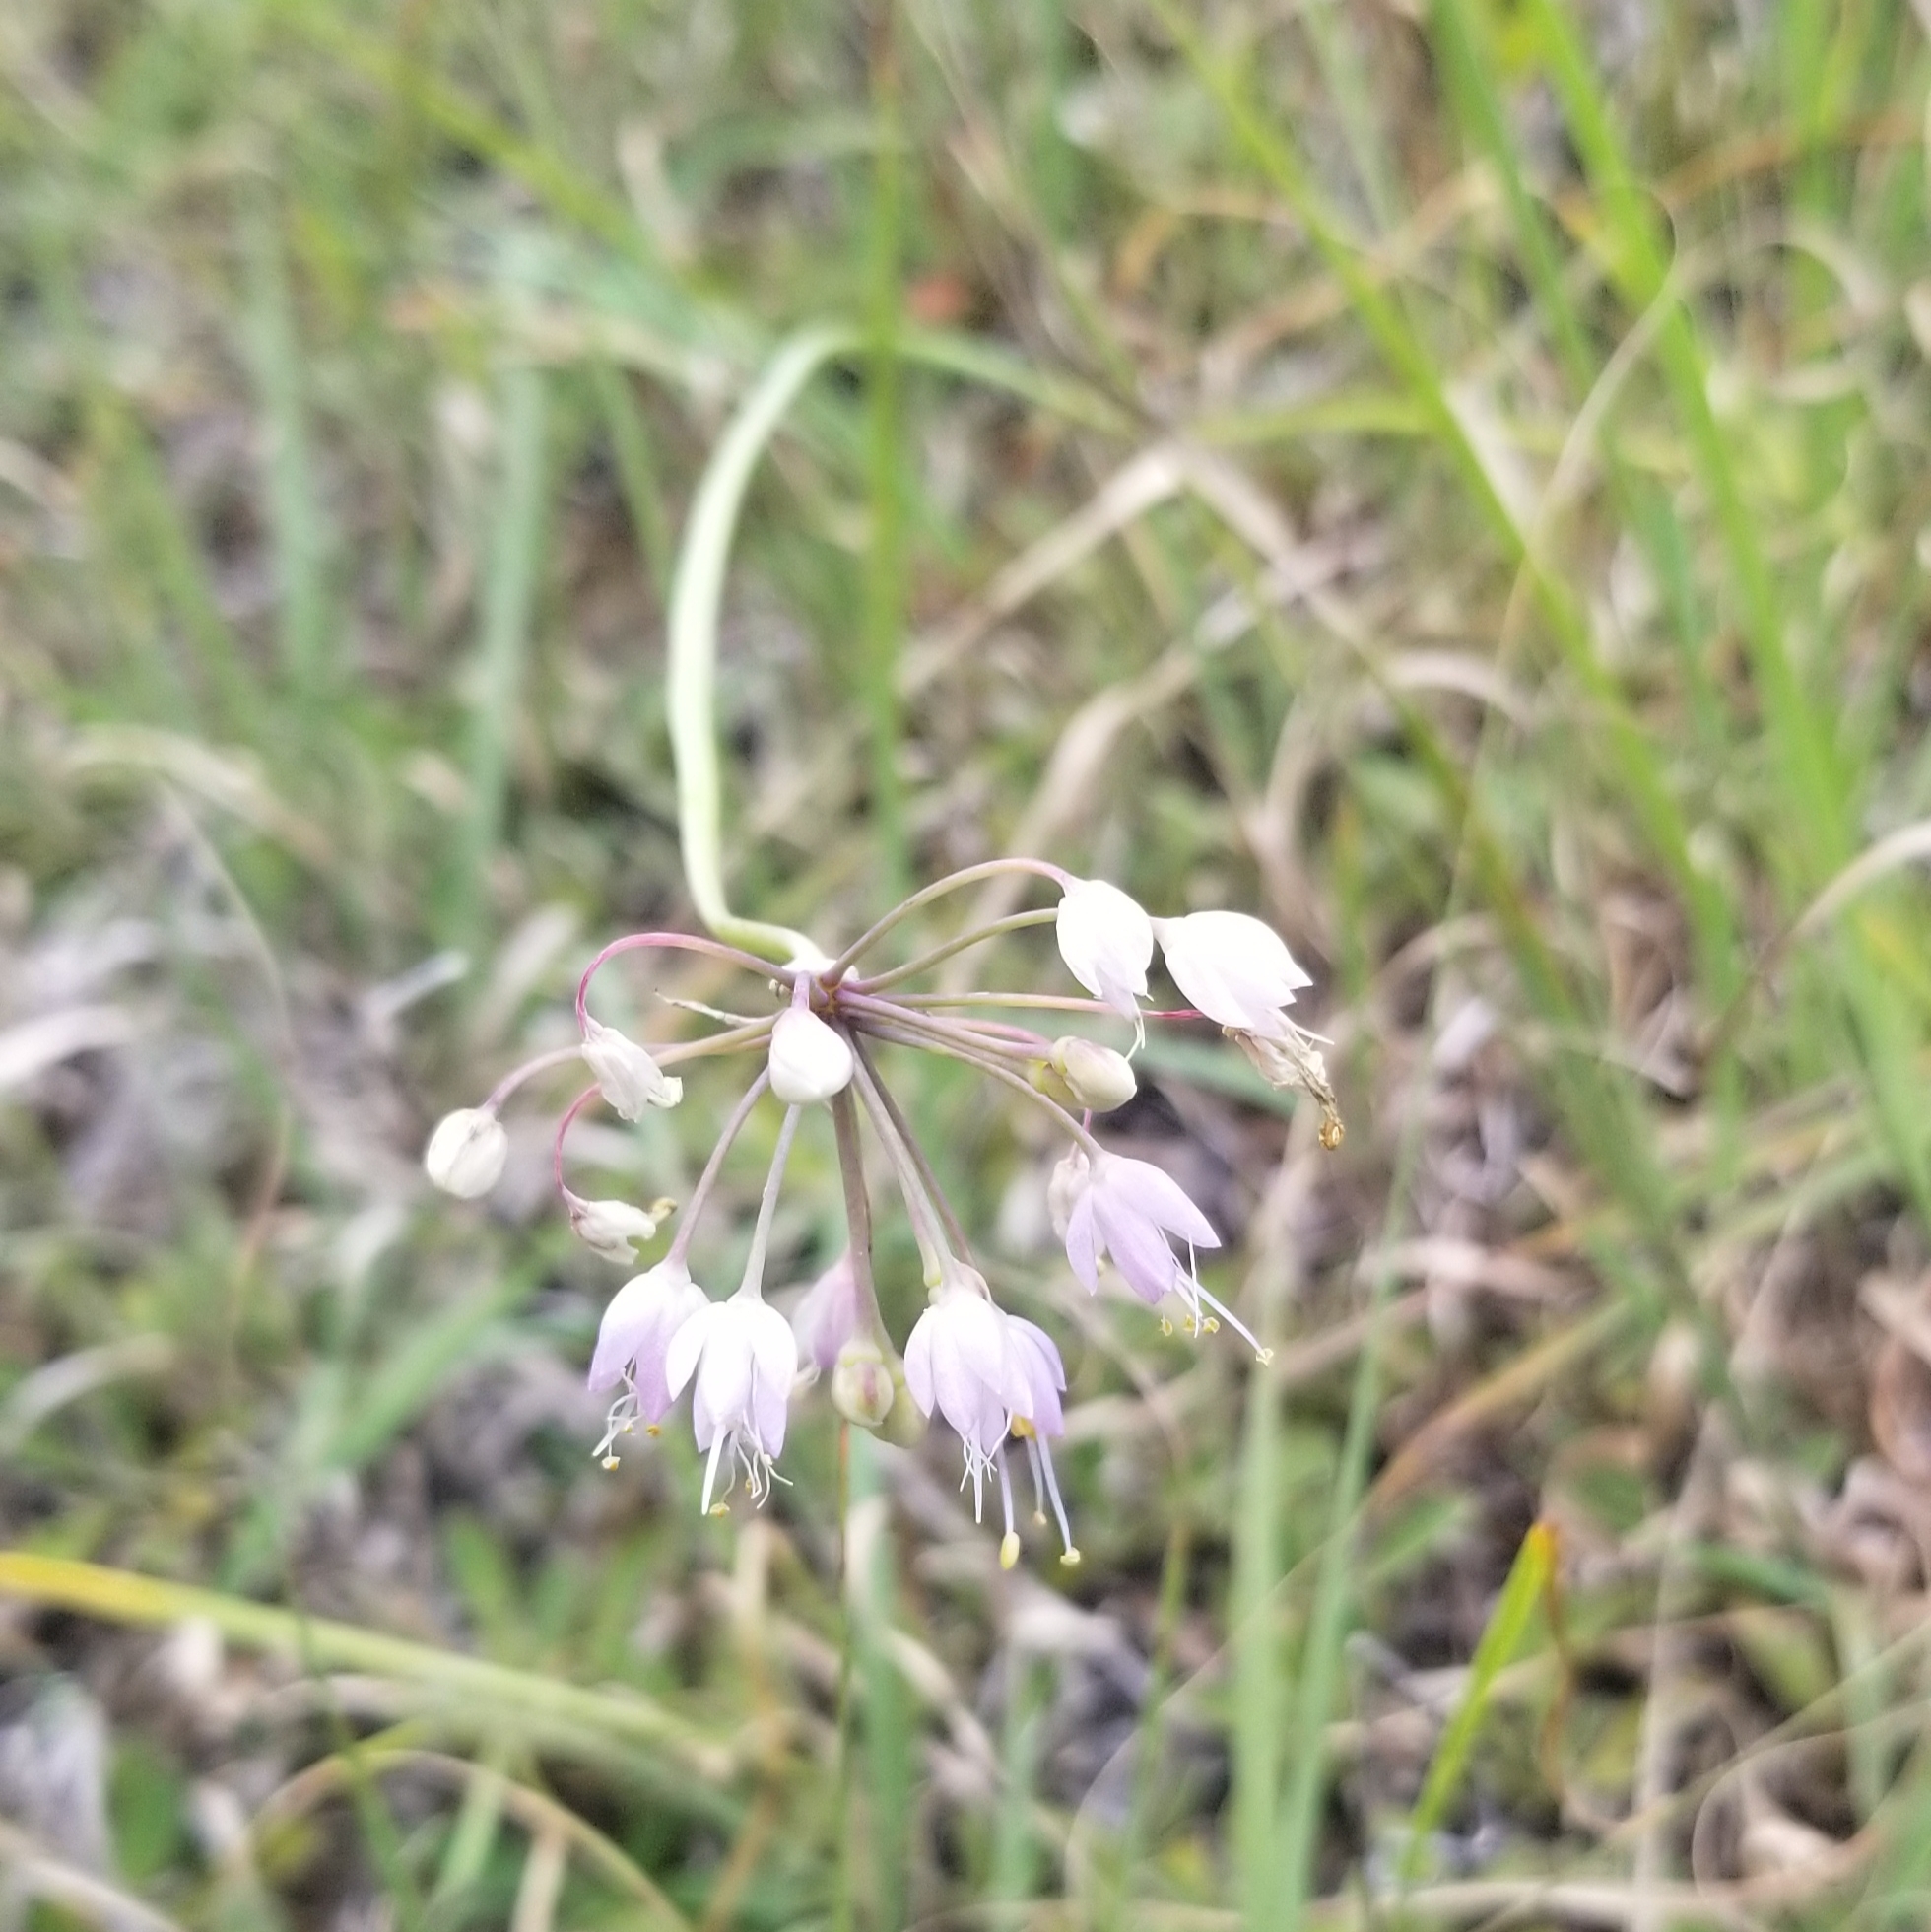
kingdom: Plantae
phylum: Tracheophyta
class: Liliopsida
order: Asparagales
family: Amaryllidaceae
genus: Allium
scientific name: Allium cernuum
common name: Nodding onion
